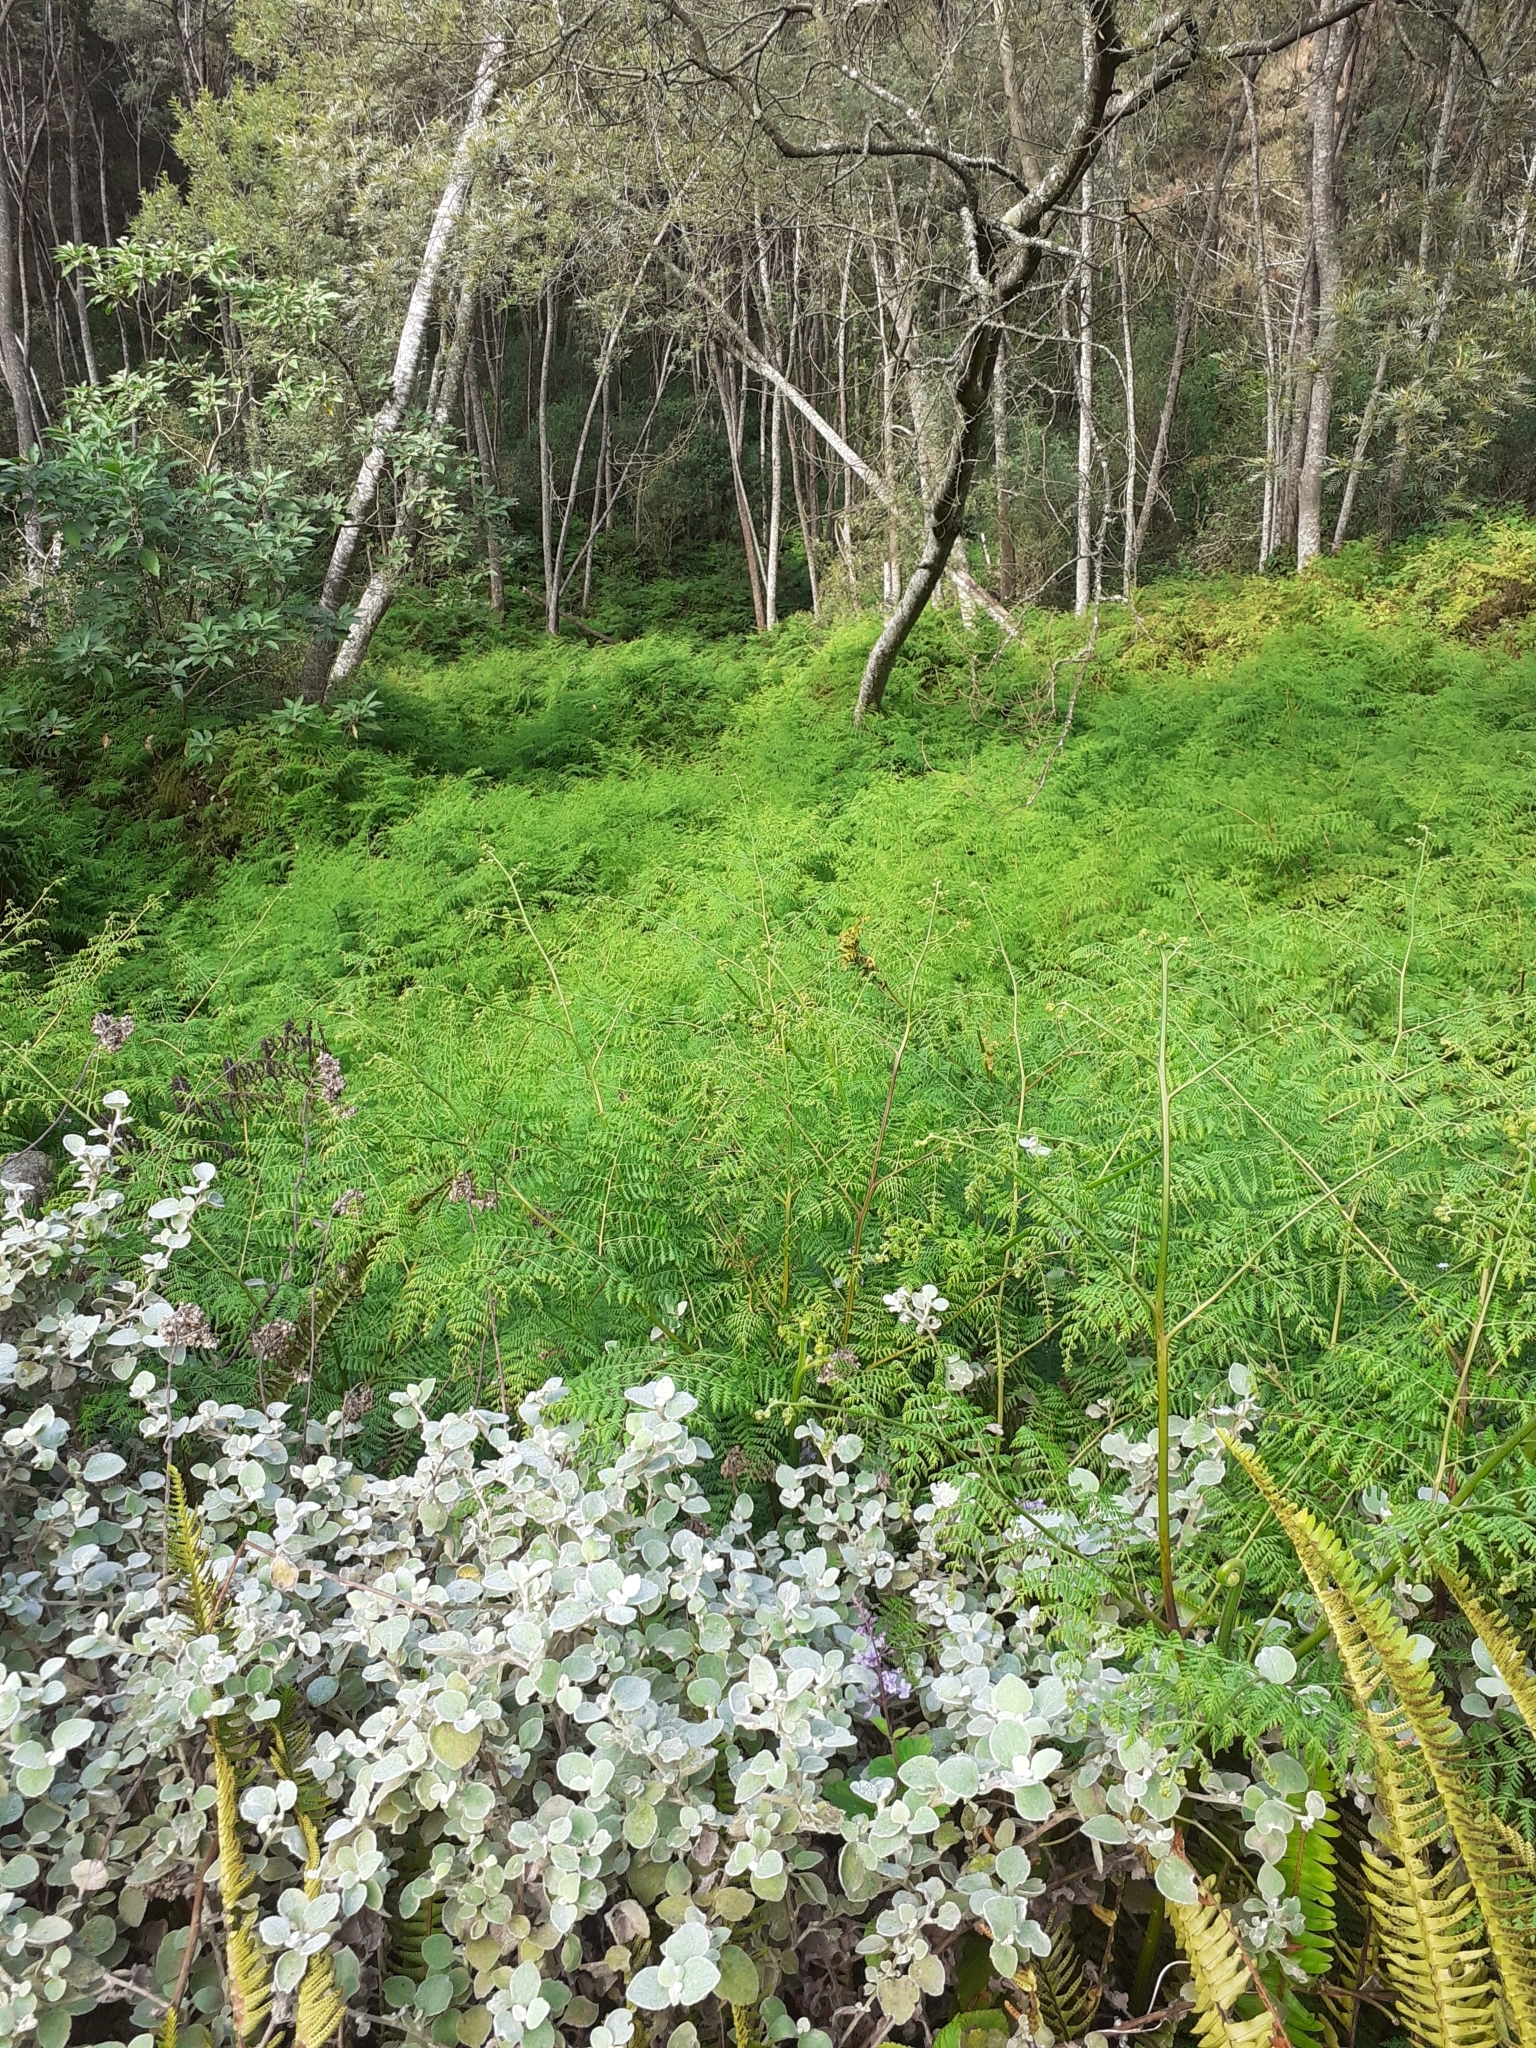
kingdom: Plantae
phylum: Tracheophyta
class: Polypodiopsida
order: Polypodiales
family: Dennstaedtiaceae
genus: Hypolepis
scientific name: Hypolepis sparsisora
